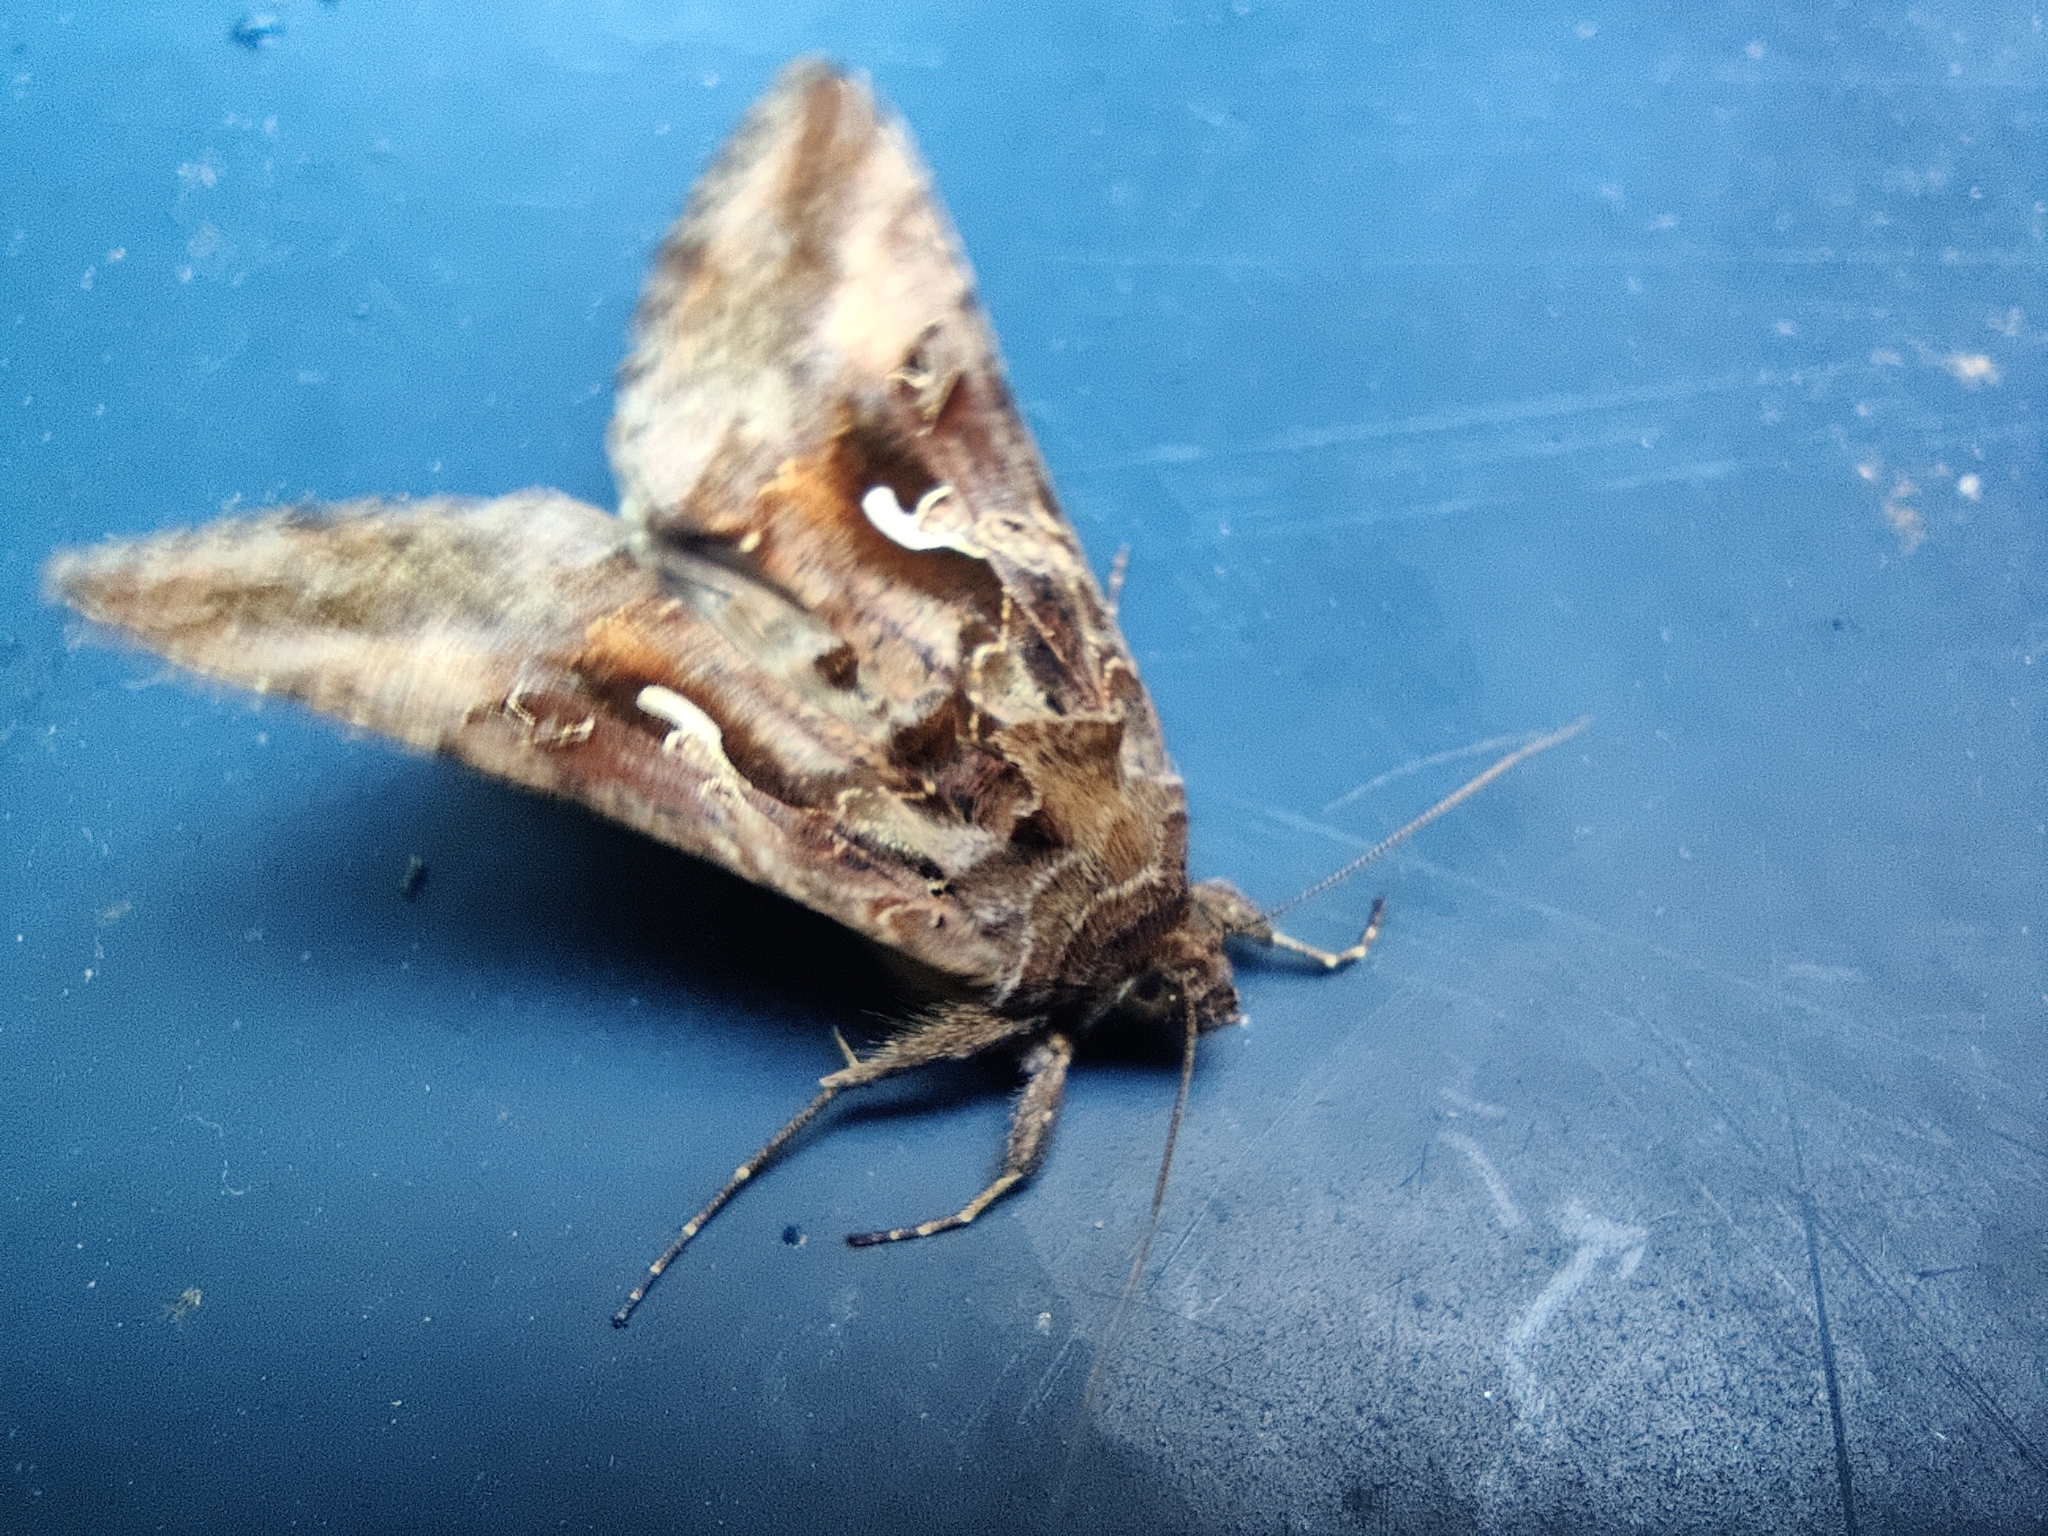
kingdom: Animalia
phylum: Arthropoda
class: Insecta
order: Lepidoptera
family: Noctuidae
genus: Autographa
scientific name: Autographa gamma
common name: Silver y
